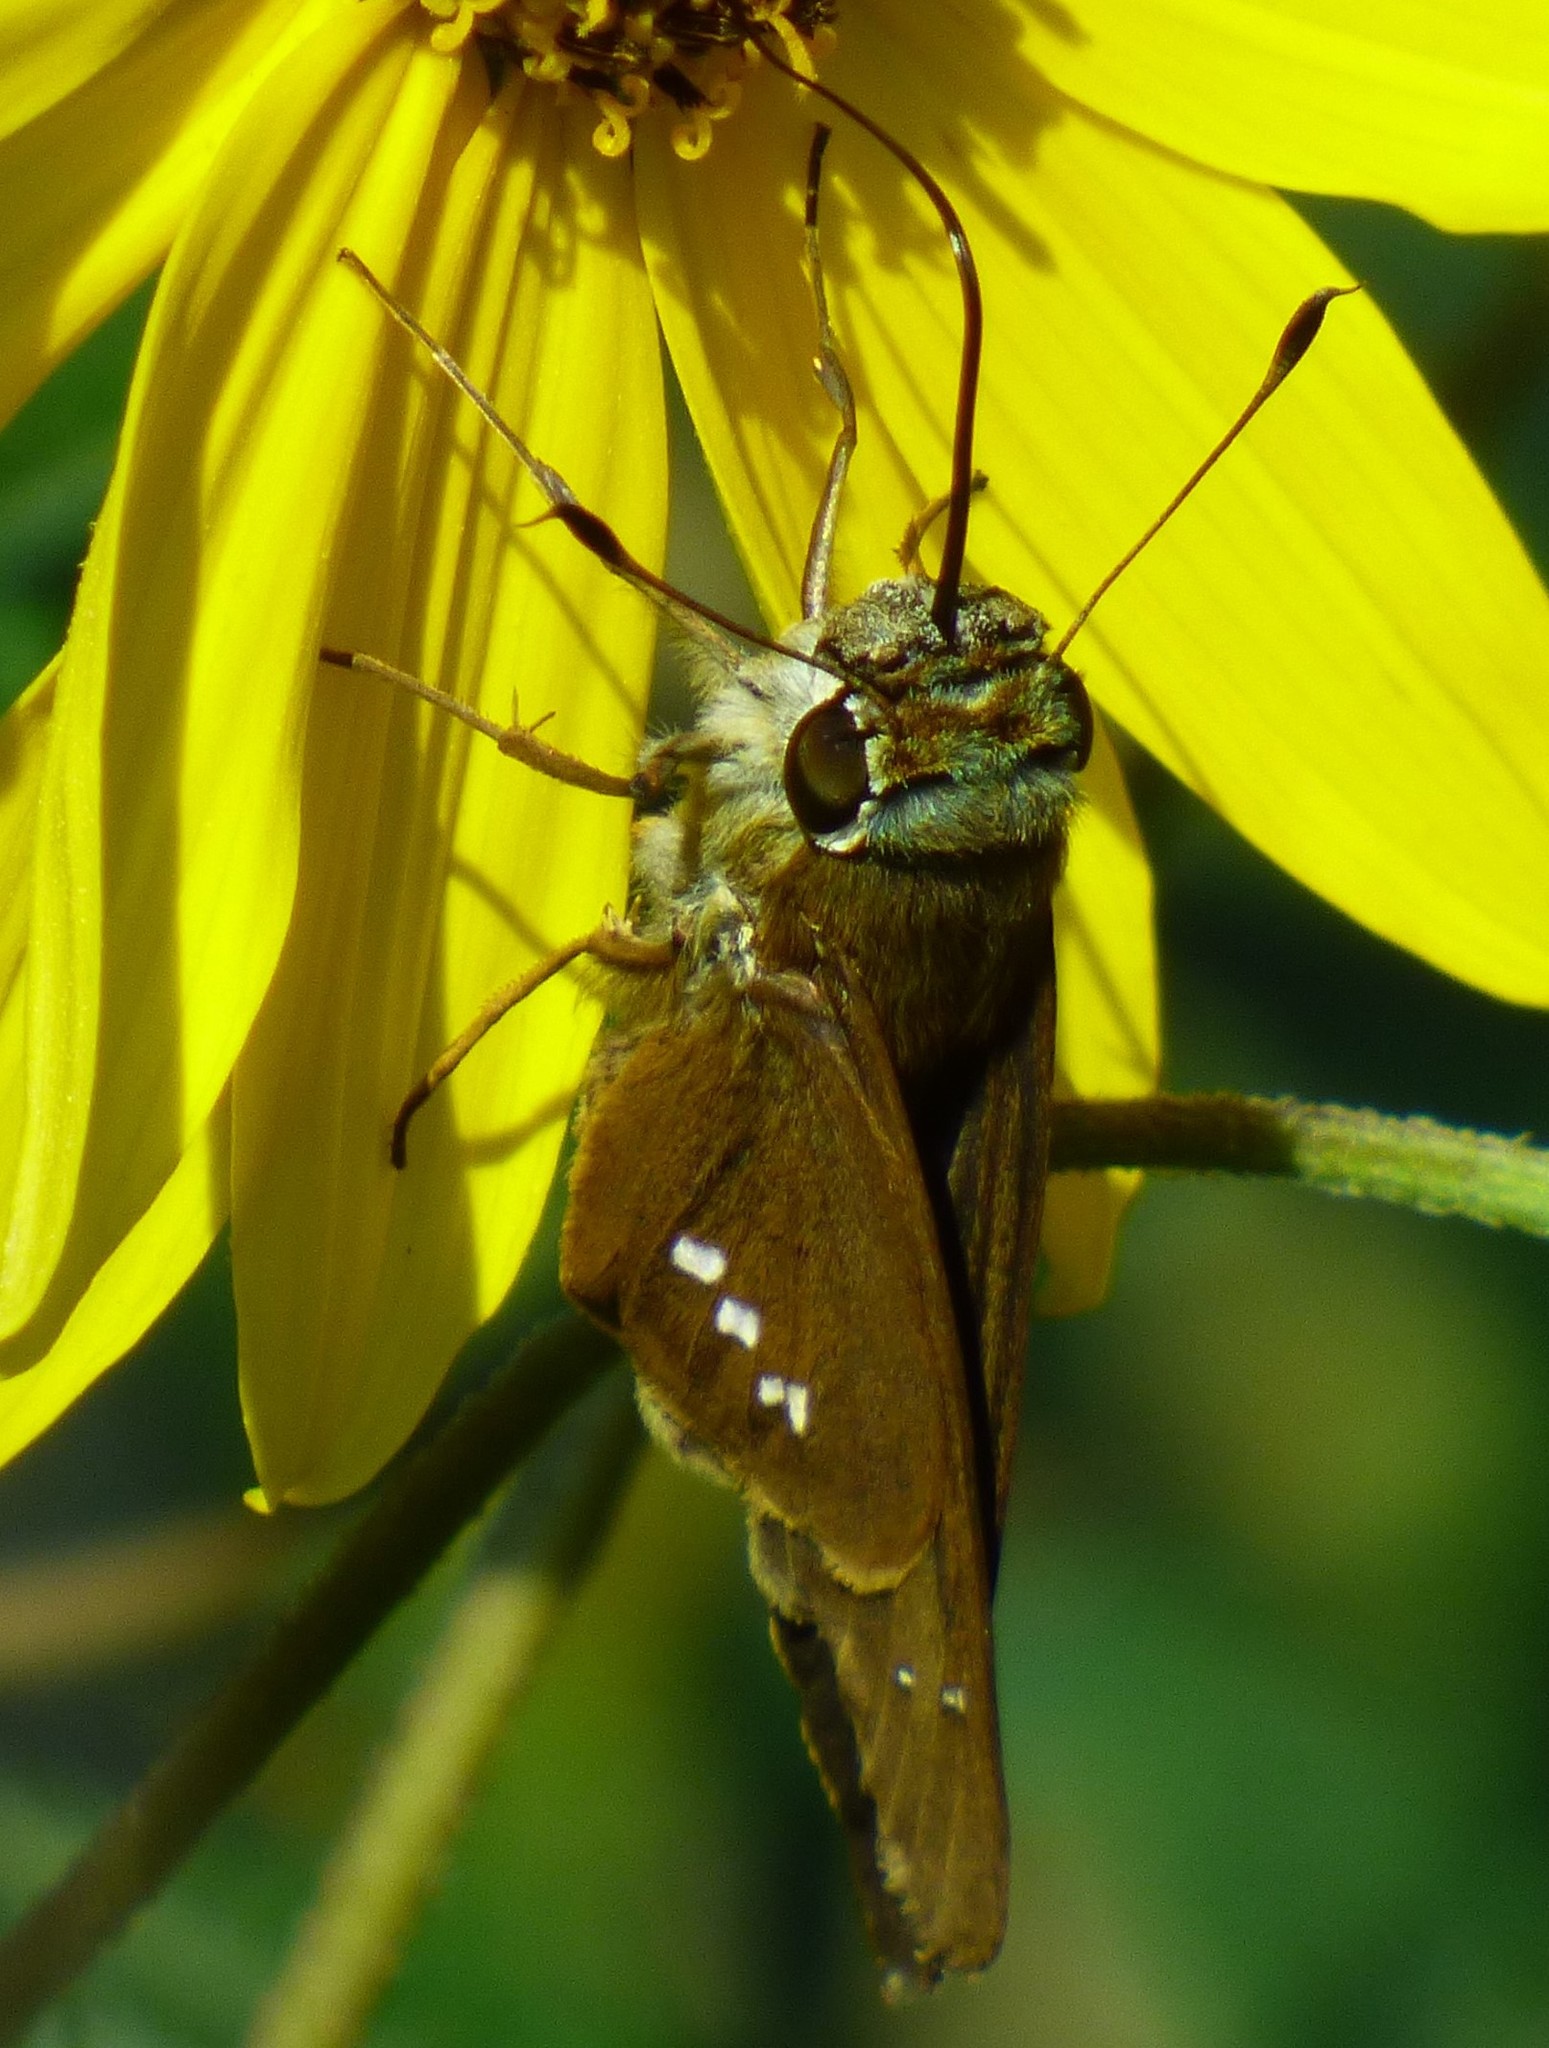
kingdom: Animalia
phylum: Arthropoda
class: Insecta
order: Lepidoptera
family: Hesperiidae
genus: Calpodes
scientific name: Calpodes ethlius
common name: Brazilian skipper
